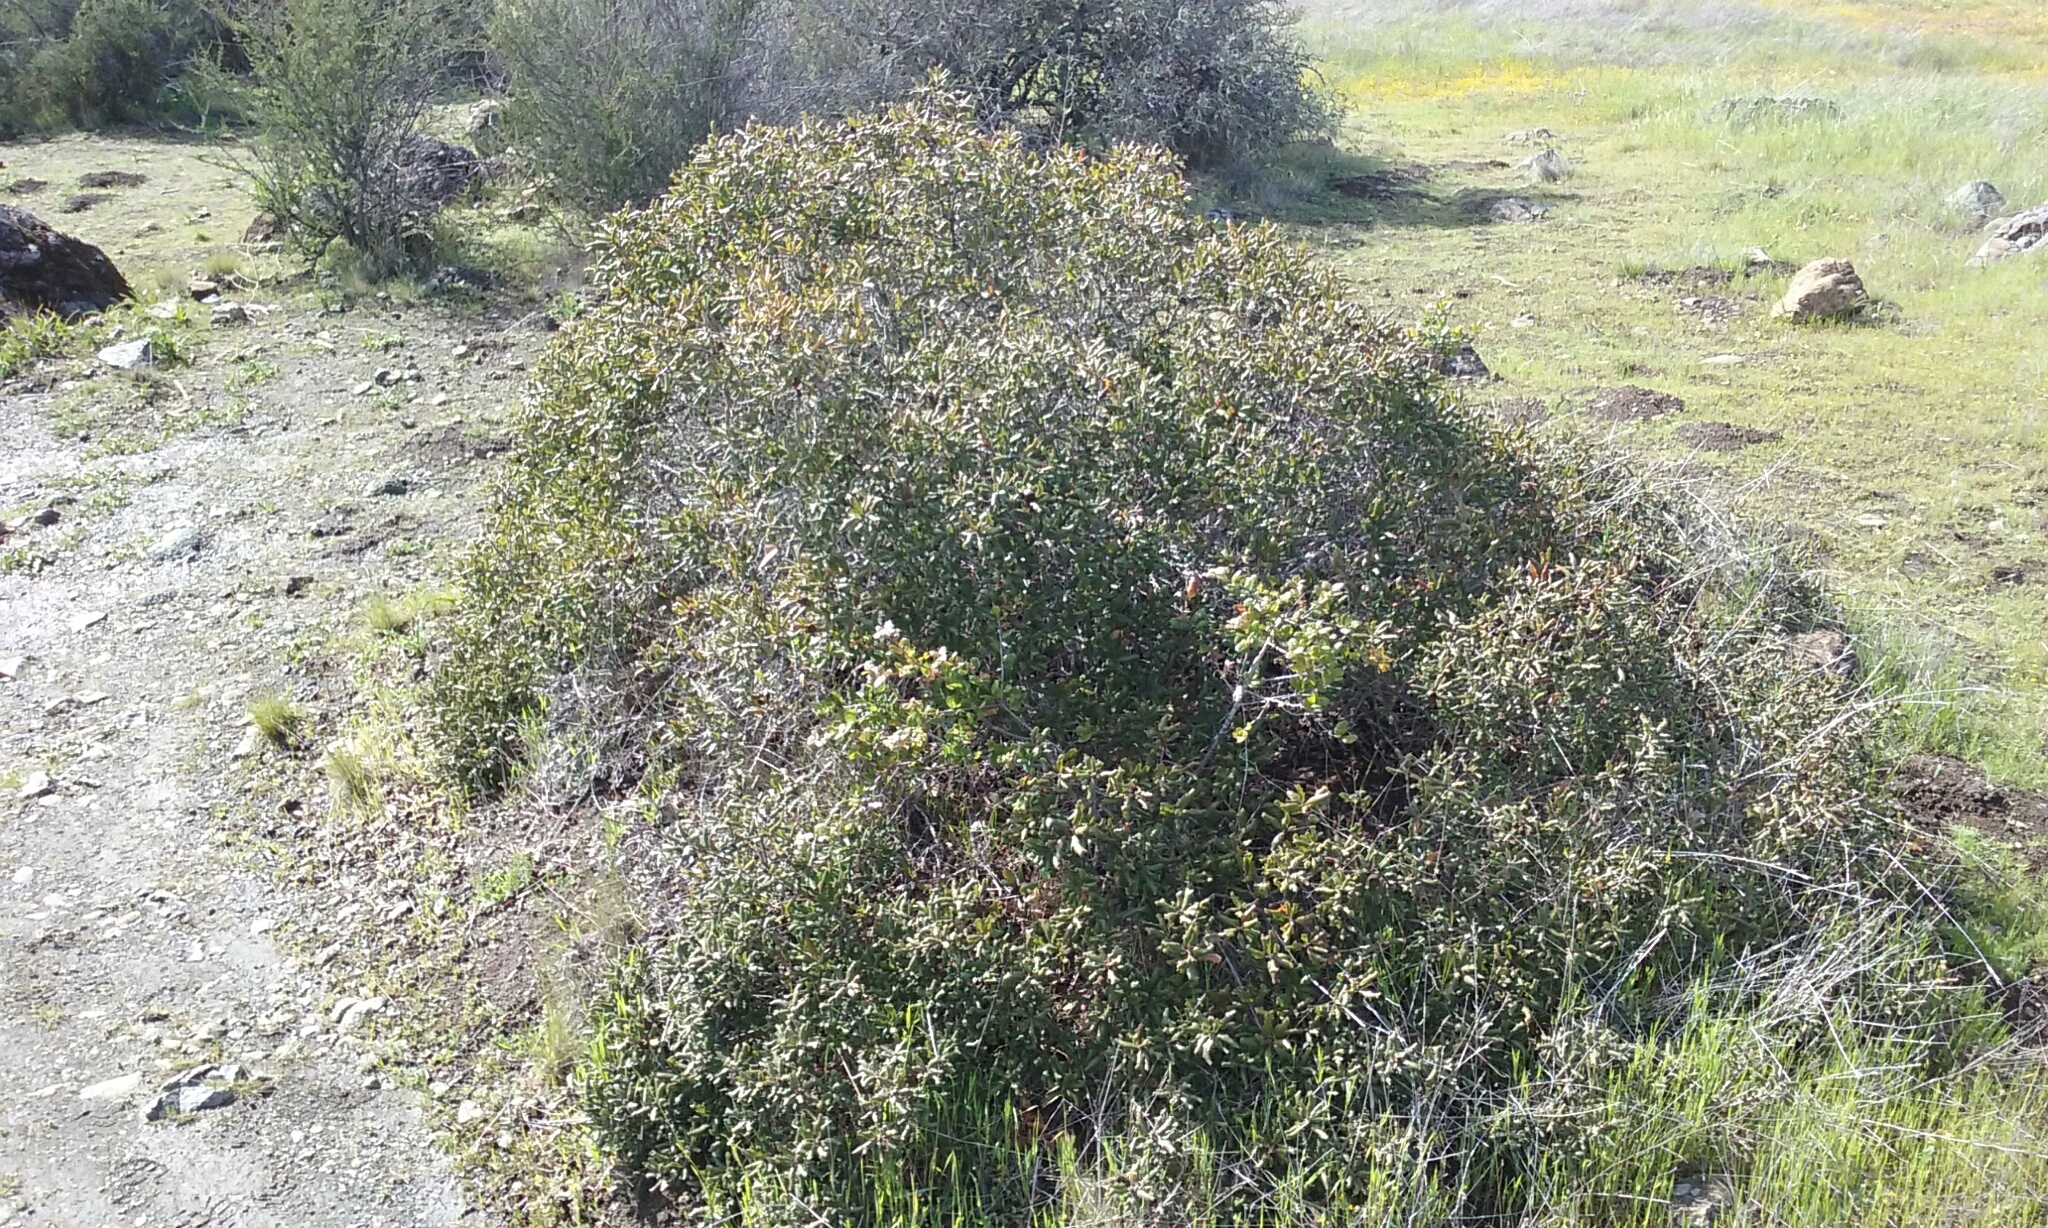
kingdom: Plantae
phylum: Tracheophyta
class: Magnoliopsida
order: Fagales
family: Fagaceae
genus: Quercus
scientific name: Quercus durata
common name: Leather oak
